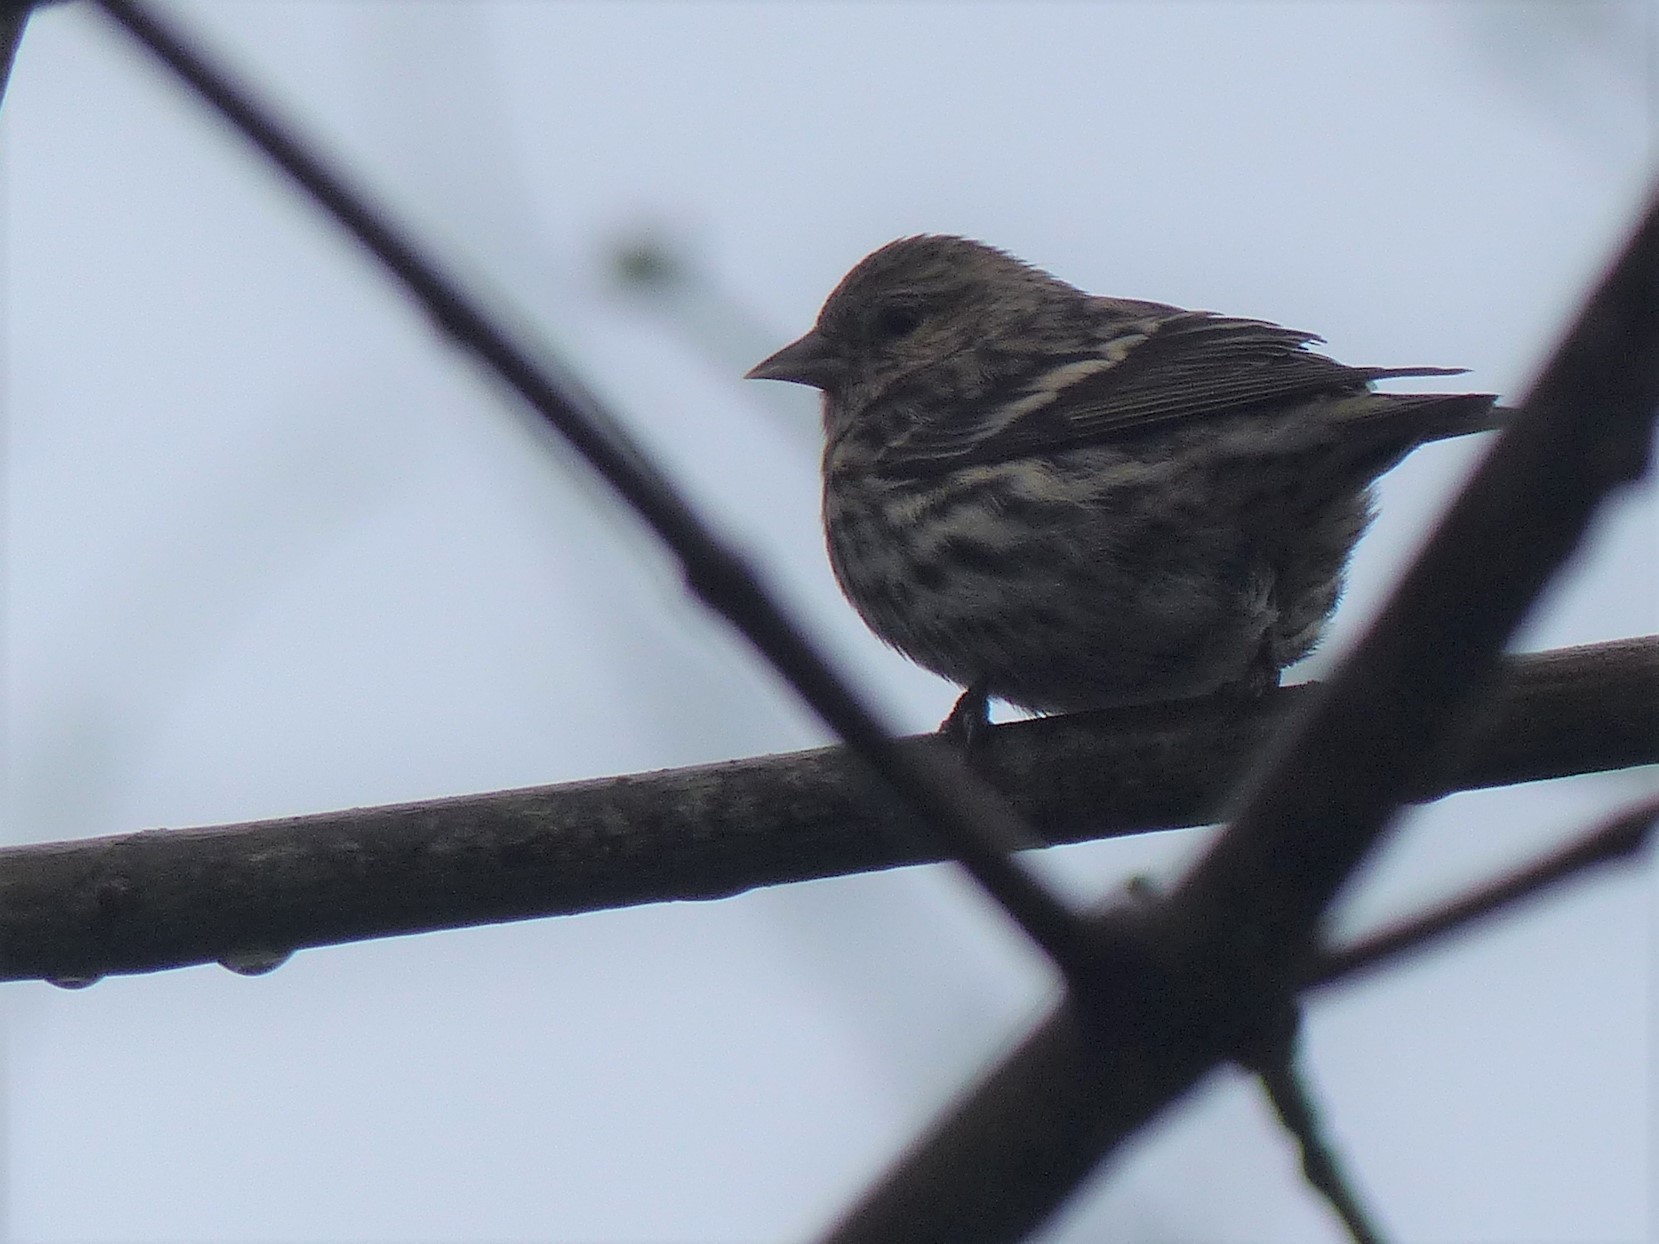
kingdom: Animalia
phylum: Chordata
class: Aves
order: Passeriformes
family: Fringillidae
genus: Spinus
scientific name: Spinus pinus
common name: Pine siskin
